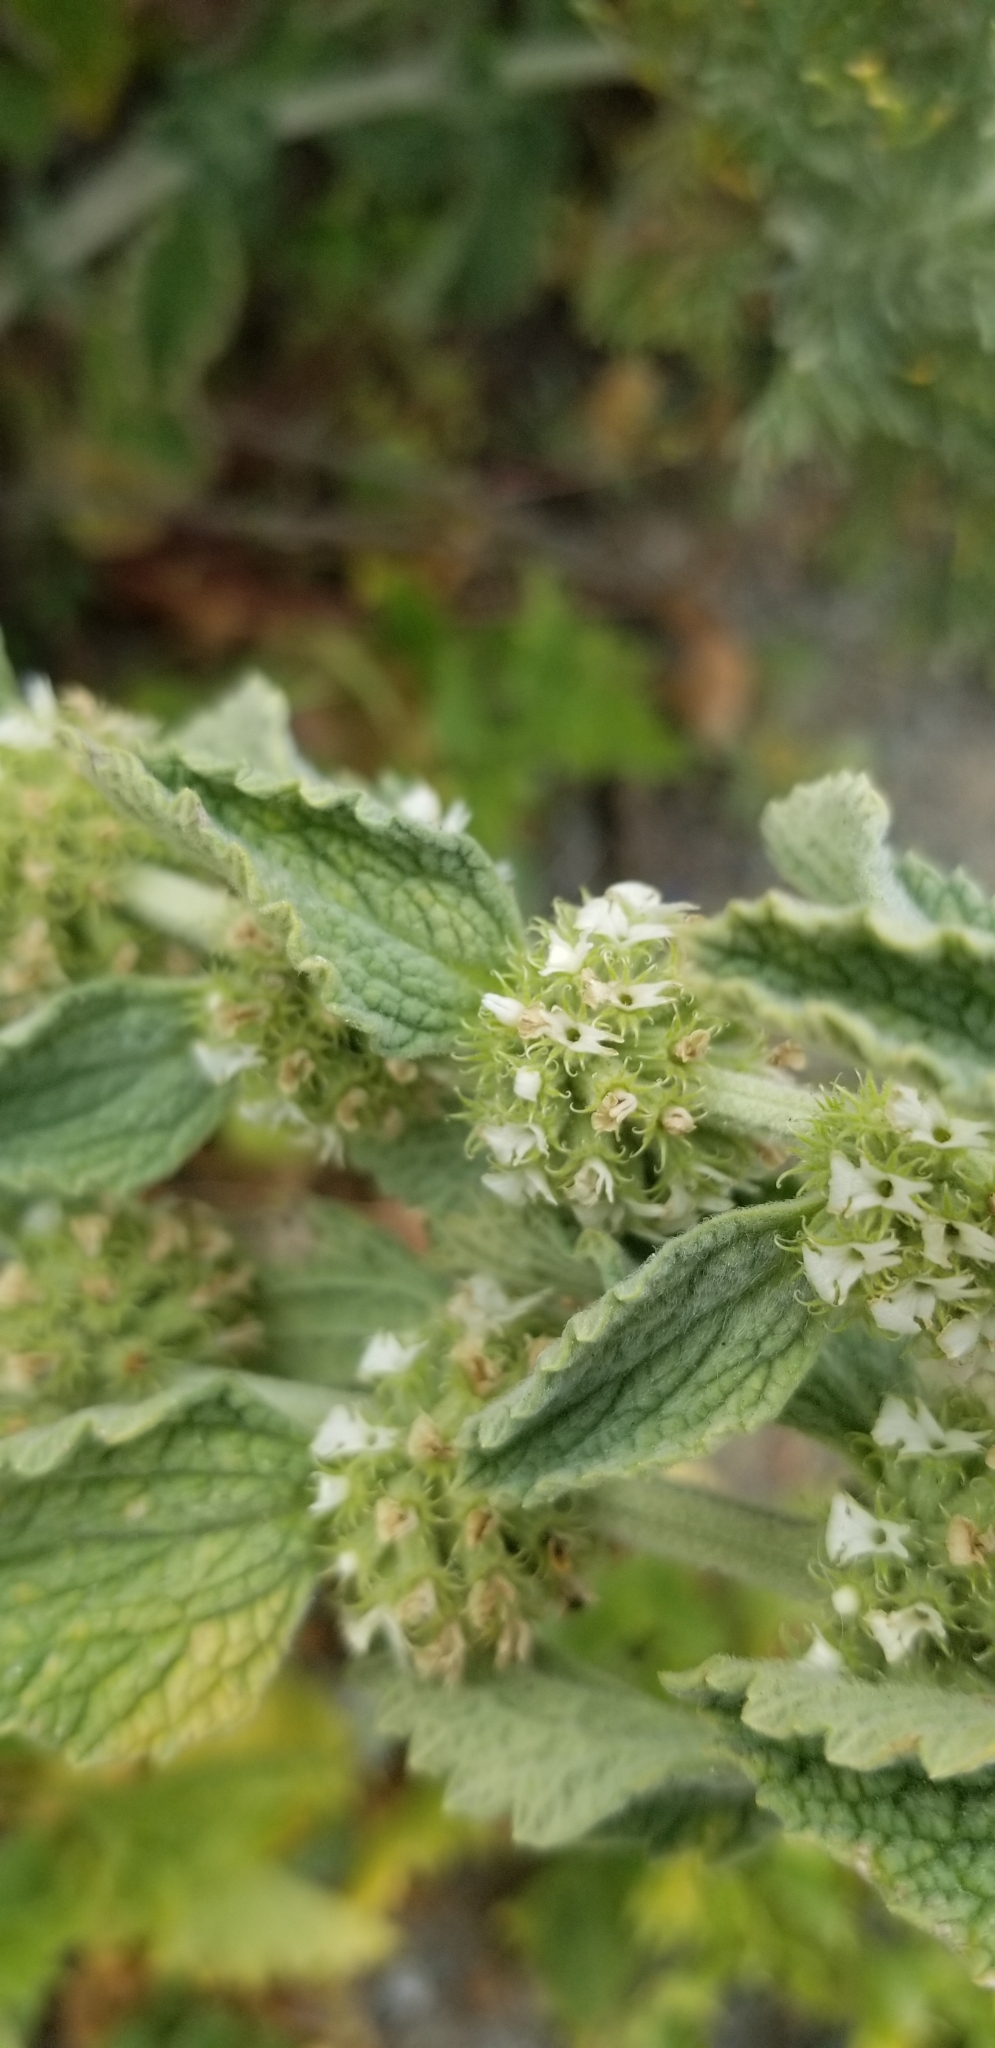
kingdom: Plantae
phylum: Tracheophyta
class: Magnoliopsida
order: Lamiales
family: Lamiaceae
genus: Marrubium
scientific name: Marrubium vulgare
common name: Horehound
